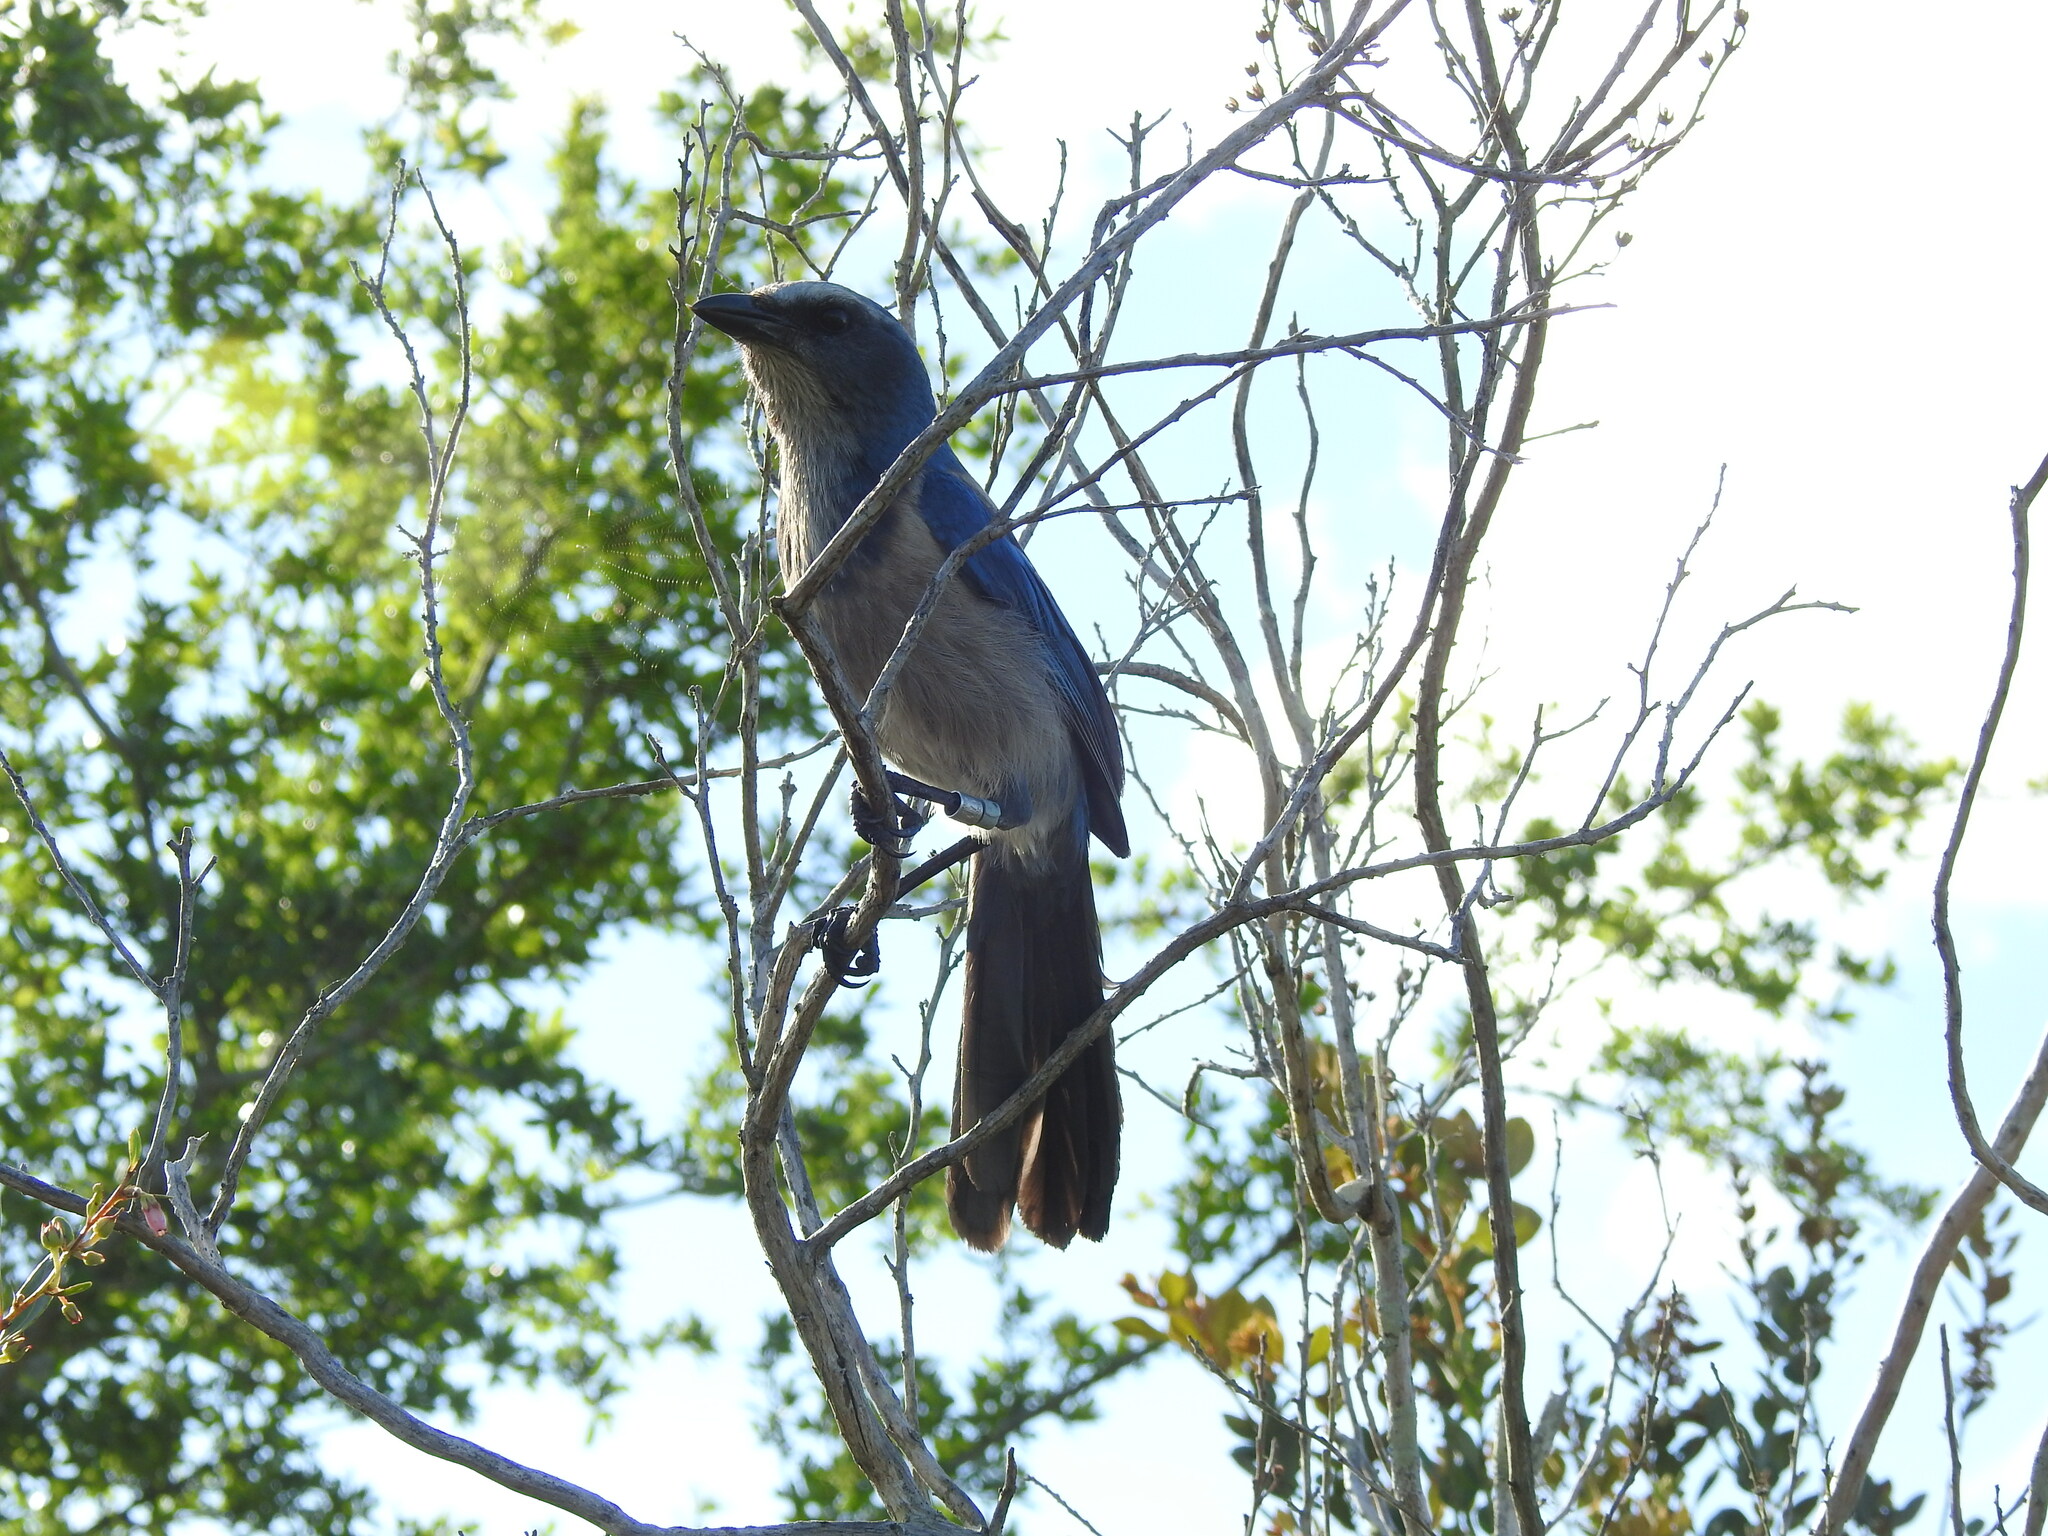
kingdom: Animalia
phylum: Chordata
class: Aves
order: Passeriformes
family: Corvidae
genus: Aphelocoma
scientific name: Aphelocoma coerulescens
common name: Florida scrub jay
